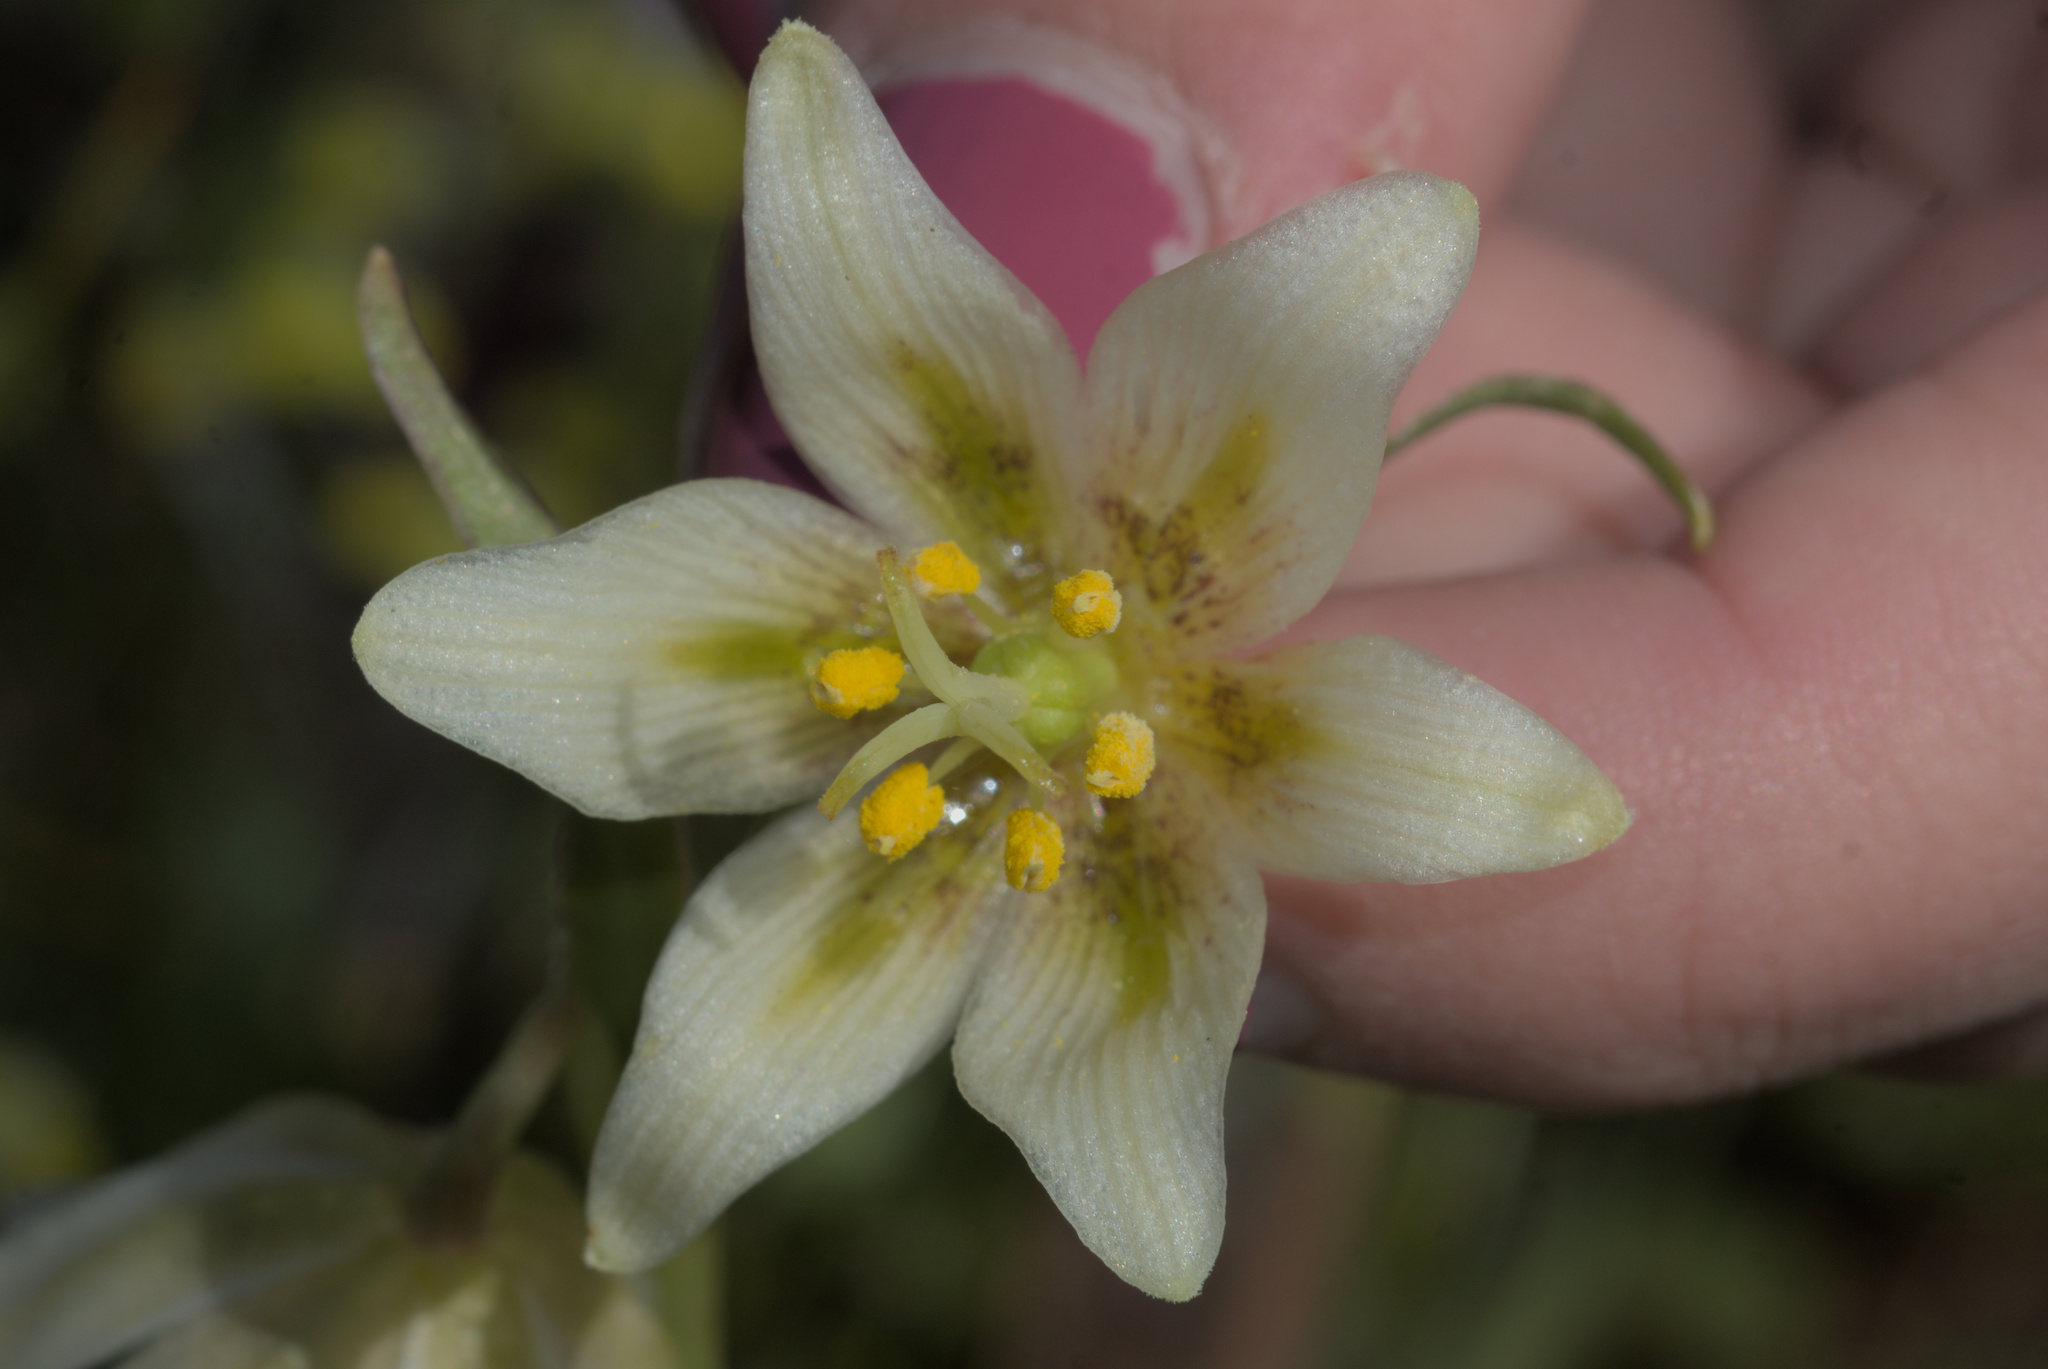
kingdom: Plantae
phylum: Tracheophyta
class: Liliopsida
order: Liliales
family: Liliaceae
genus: Fritillaria
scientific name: Fritillaria liliacea
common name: Fragrant fritillary
